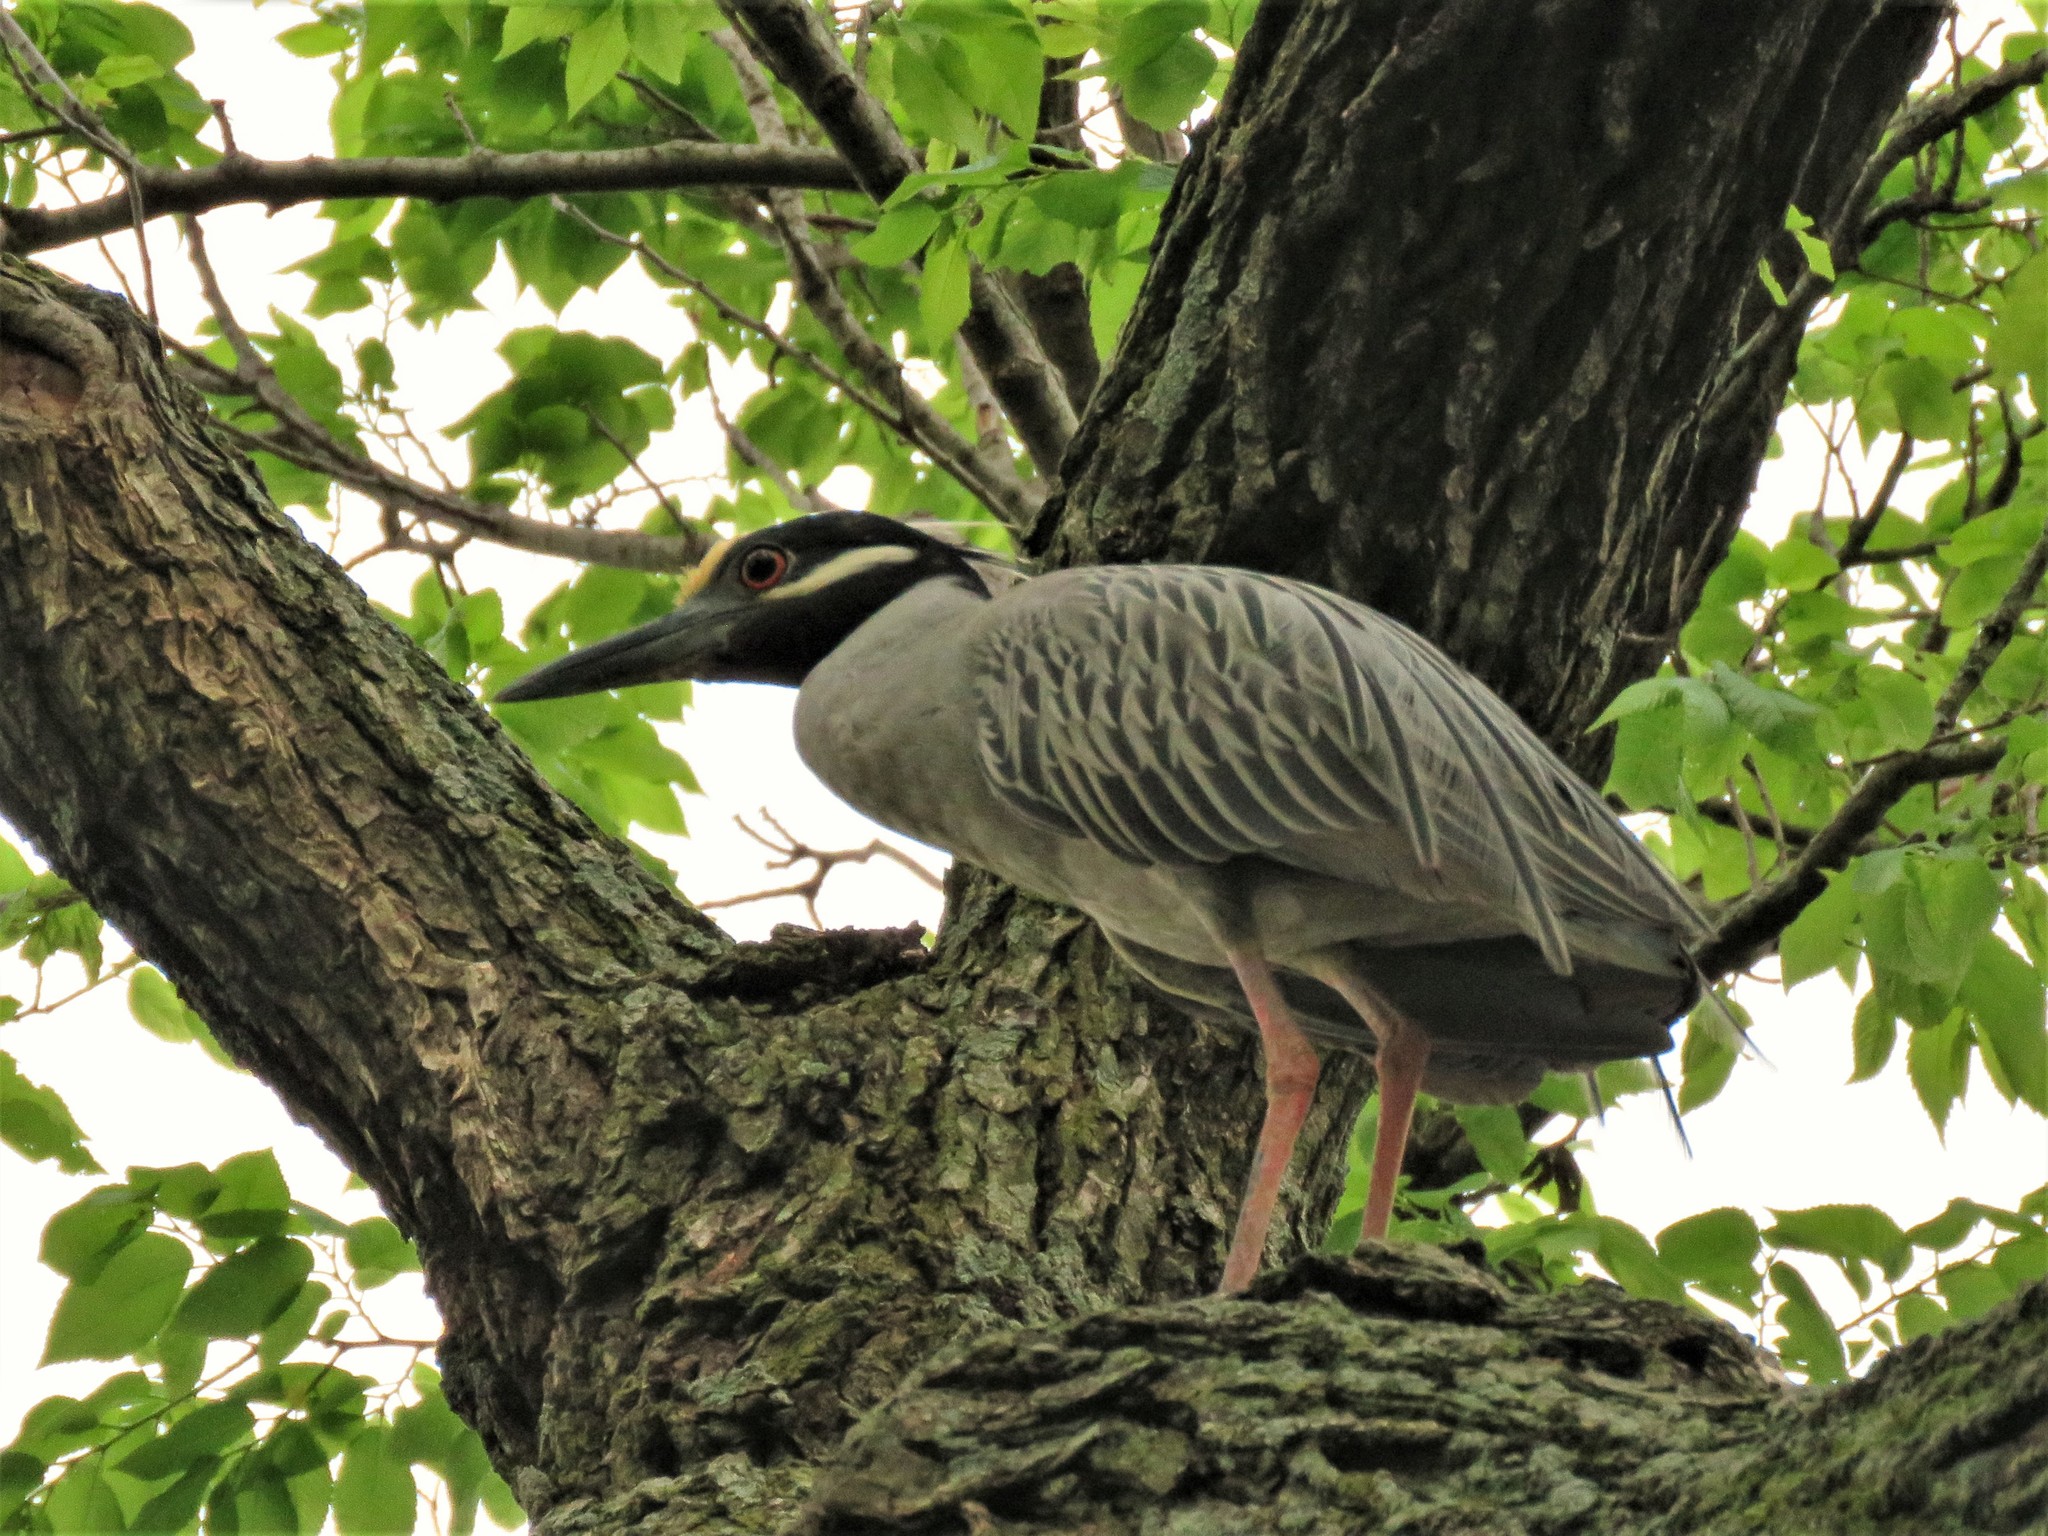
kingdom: Animalia
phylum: Chordata
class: Aves
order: Pelecaniformes
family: Ardeidae
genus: Nyctanassa
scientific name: Nyctanassa violacea
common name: Yellow-crowned night heron
